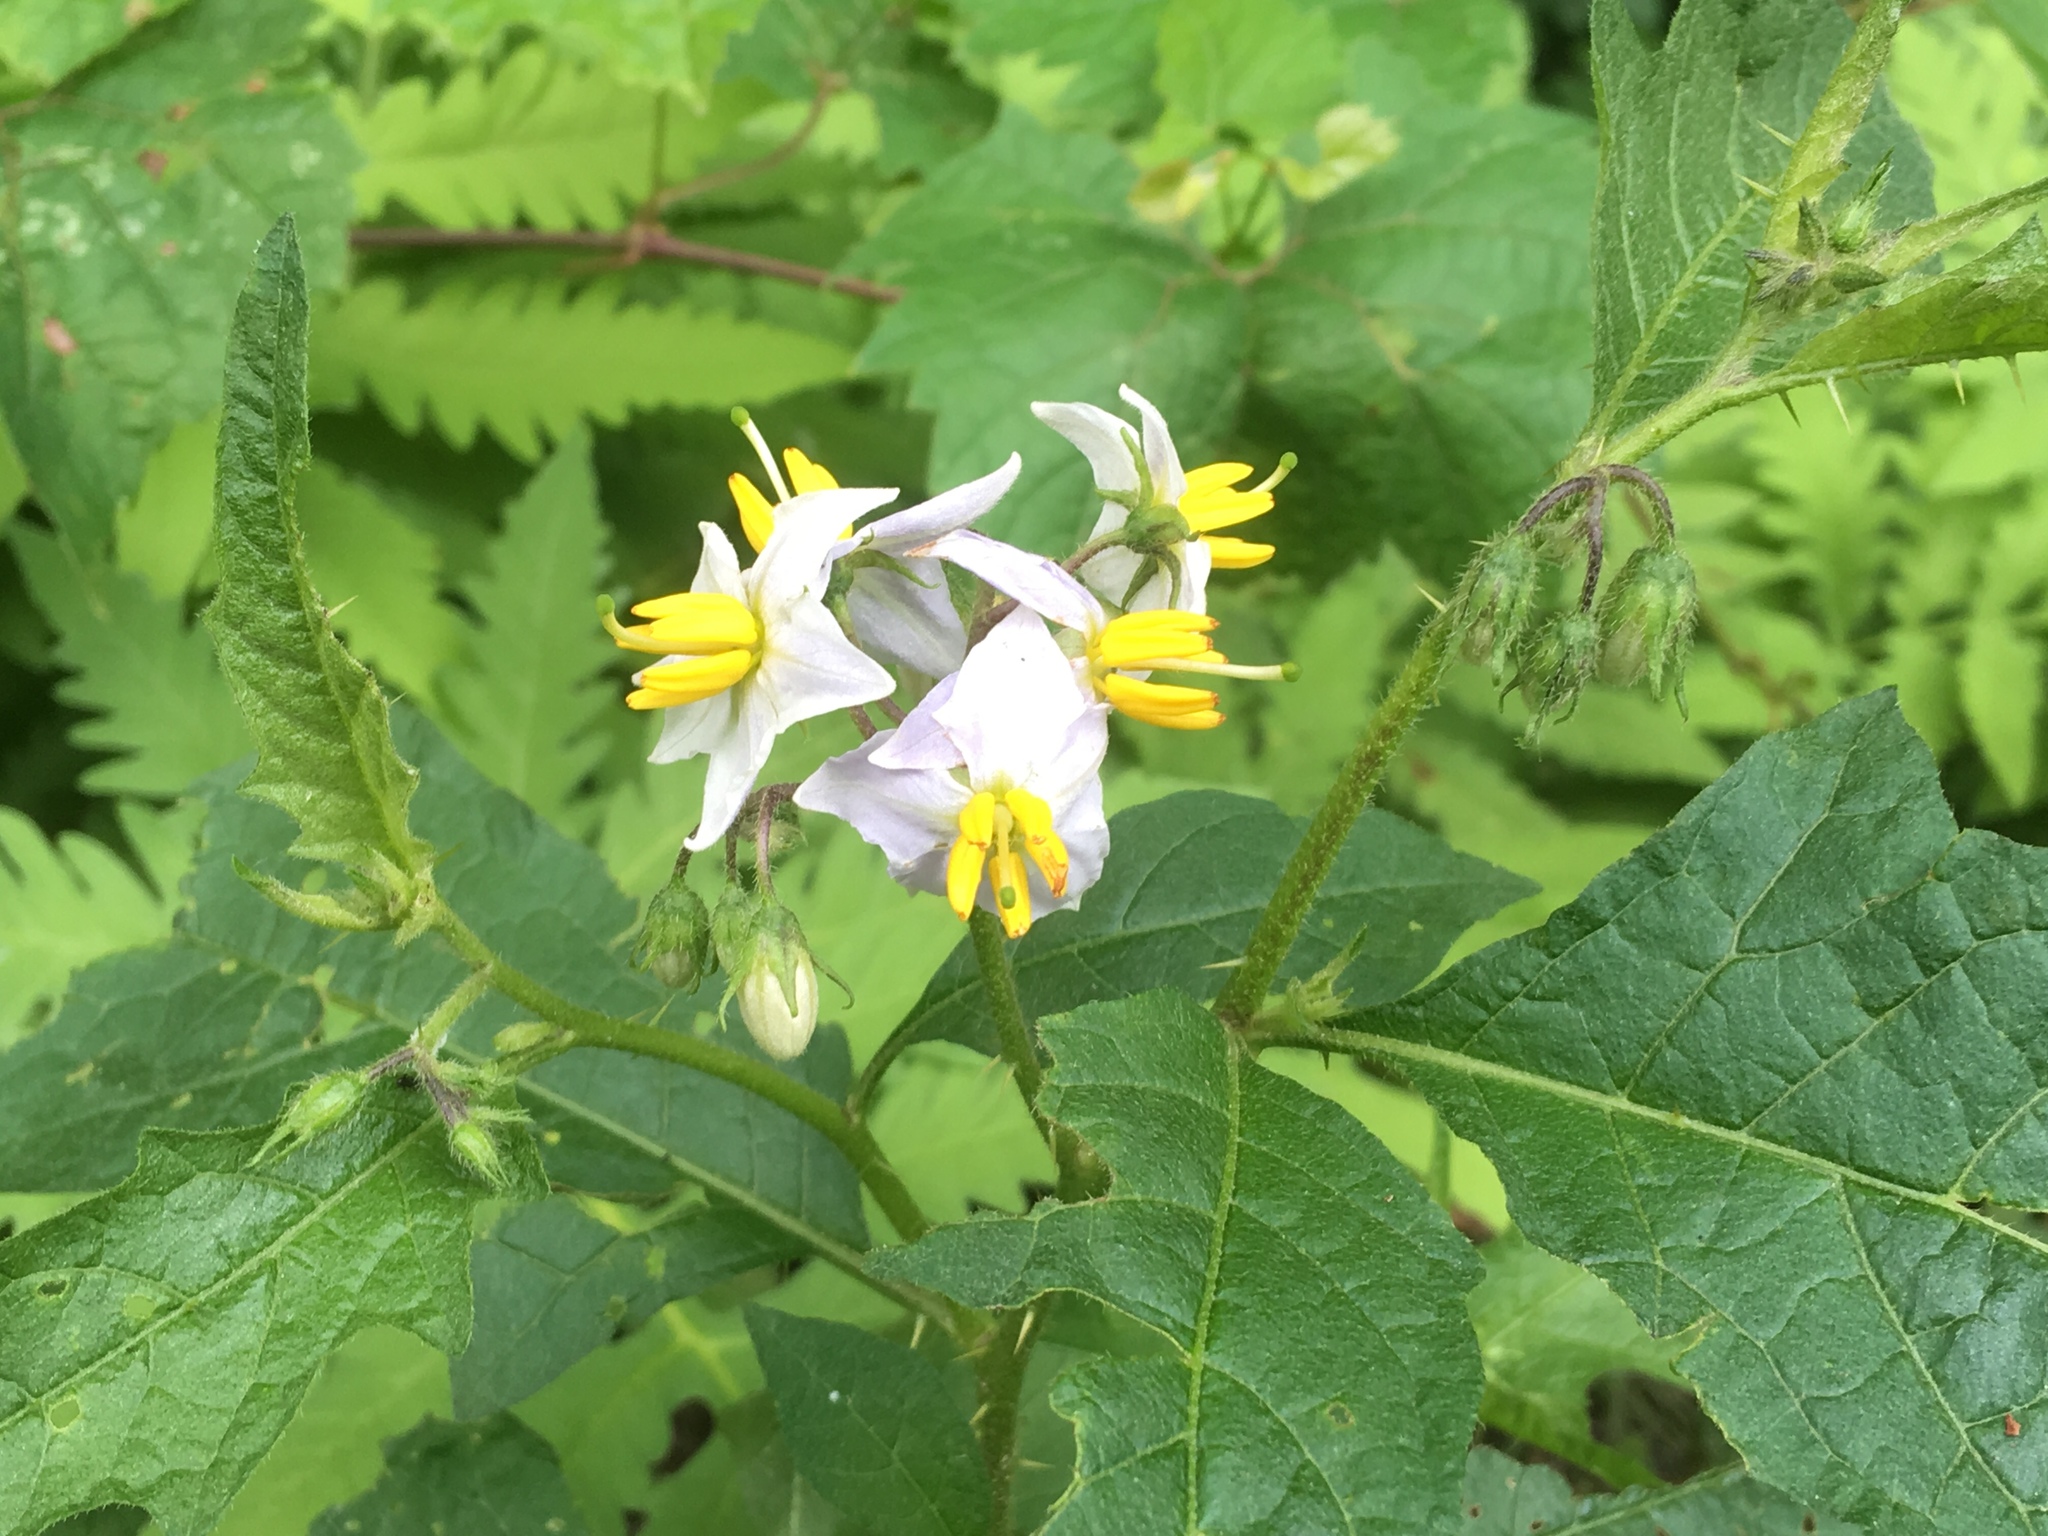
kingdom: Plantae
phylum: Tracheophyta
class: Magnoliopsida
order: Solanales
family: Solanaceae
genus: Solanum
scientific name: Solanum carolinense
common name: Horse-nettle
